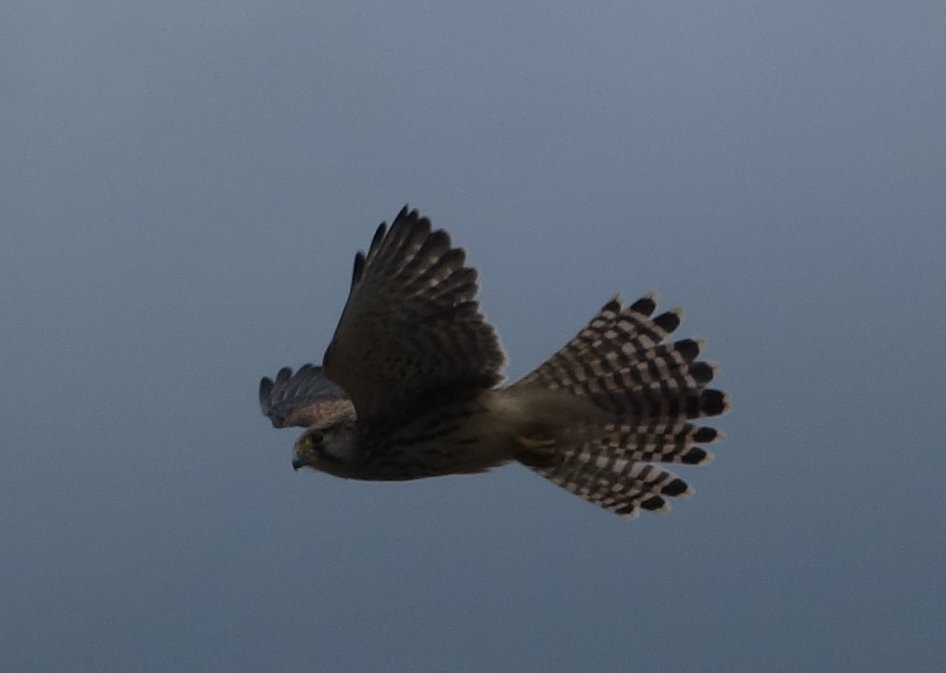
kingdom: Animalia
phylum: Chordata
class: Aves
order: Falconiformes
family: Falconidae
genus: Falco
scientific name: Falco tinnunculus
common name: Common kestrel
